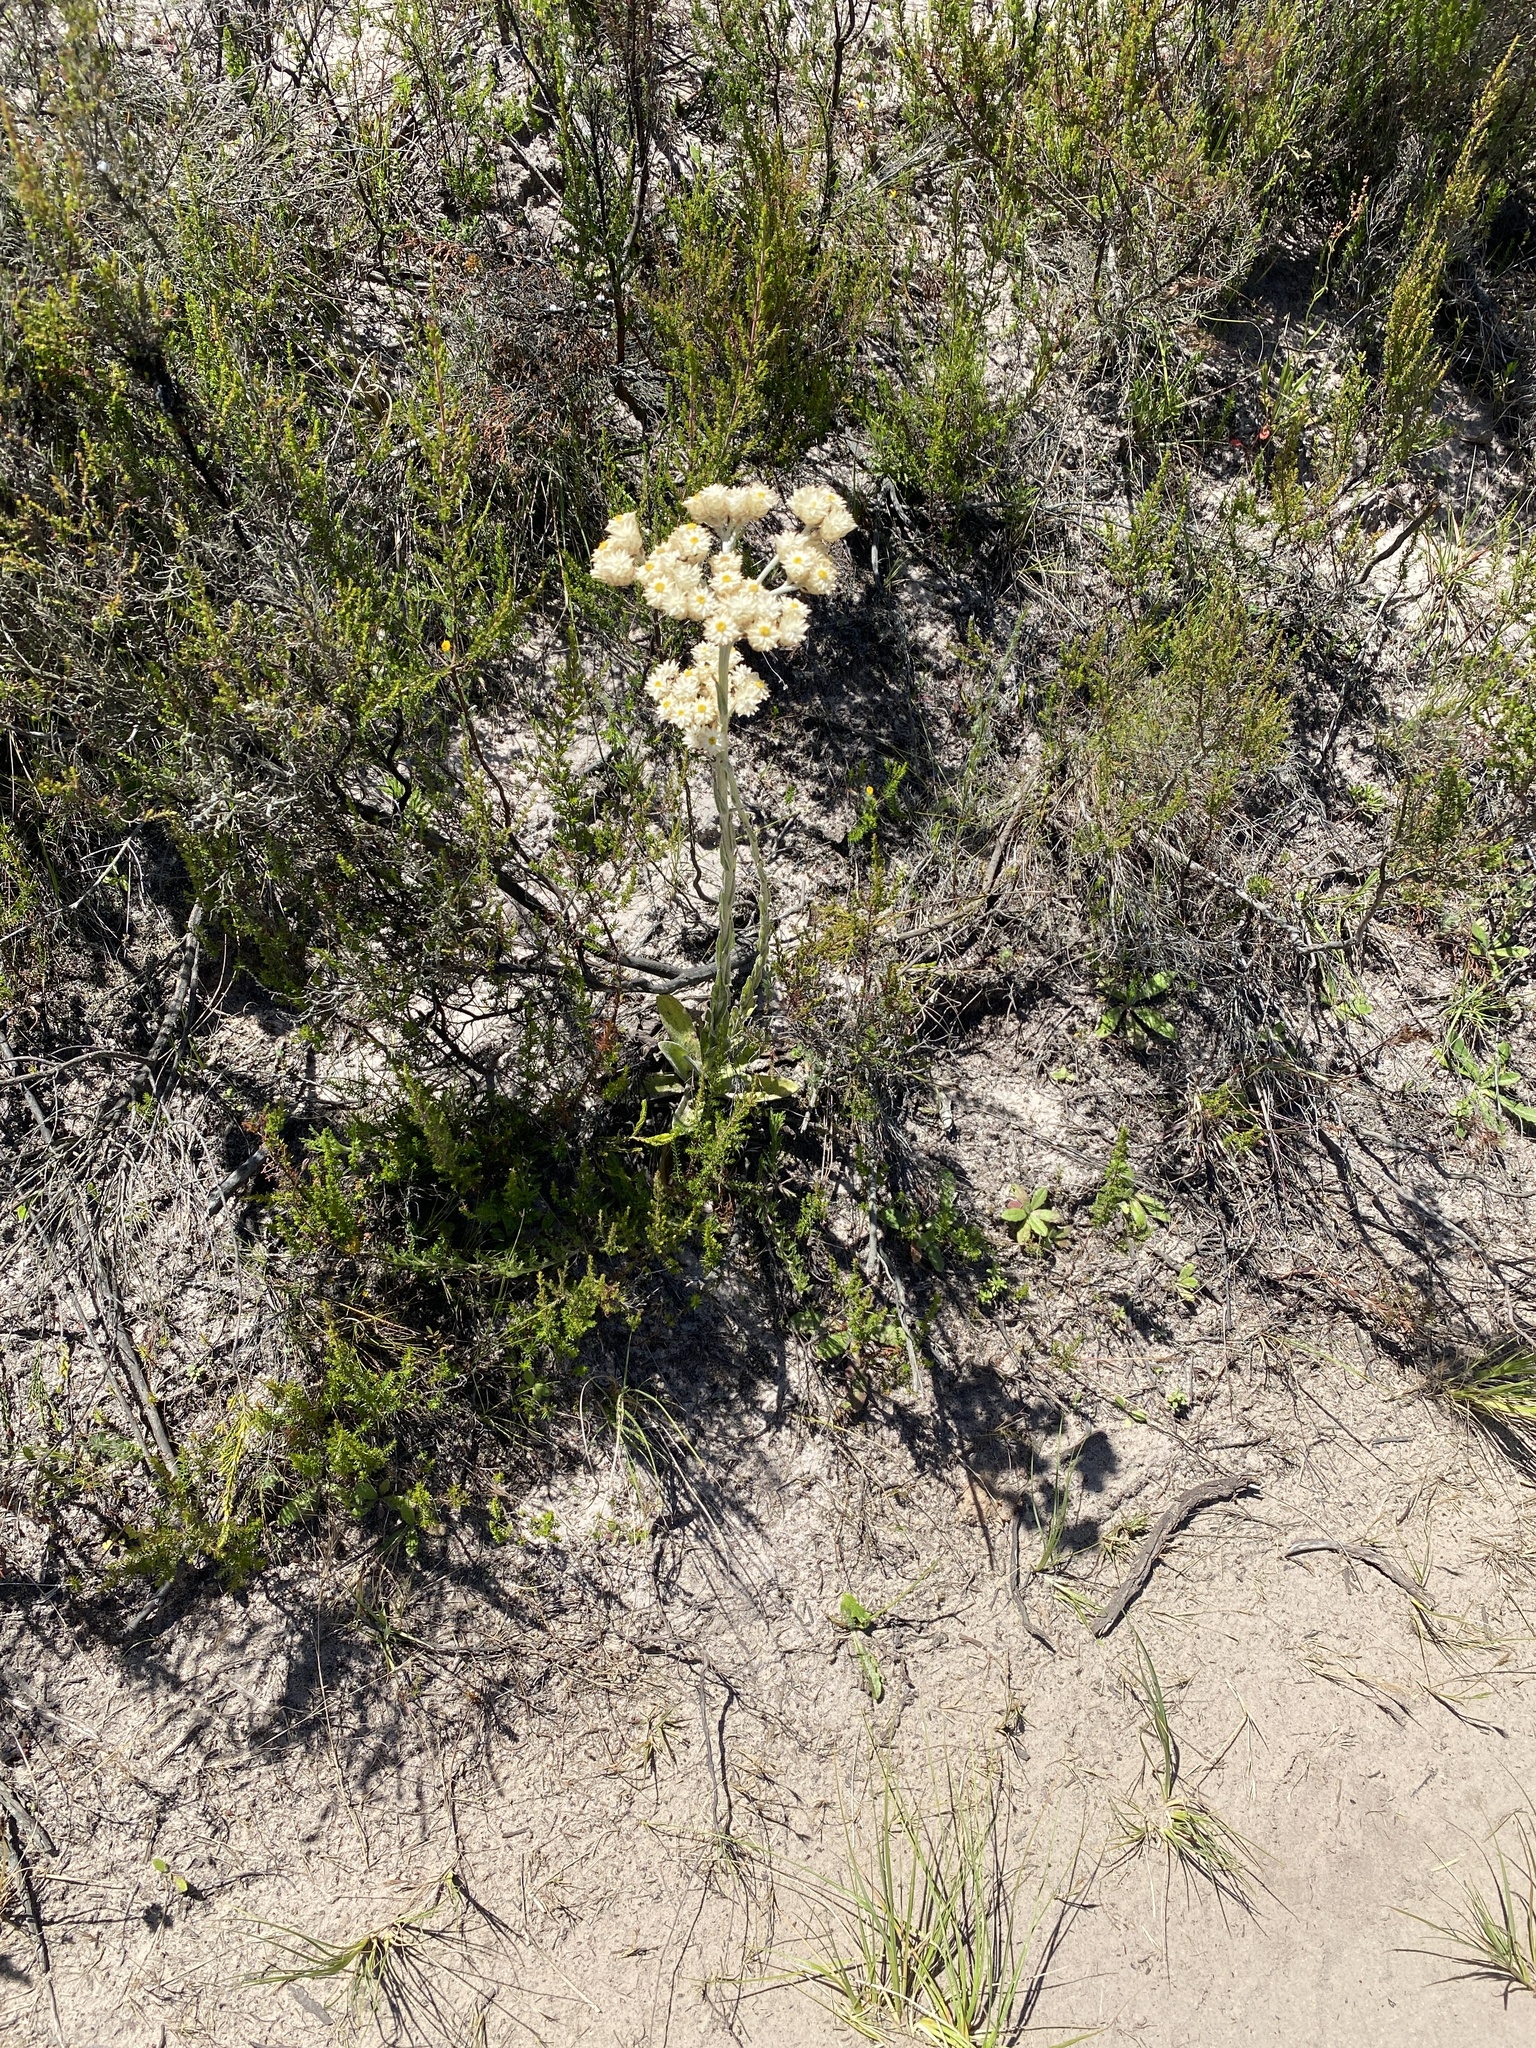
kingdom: Plantae
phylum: Tracheophyta
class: Magnoliopsida
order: Asterales
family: Asteraceae
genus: Helichrysum
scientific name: Helichrysum appendiculatum
